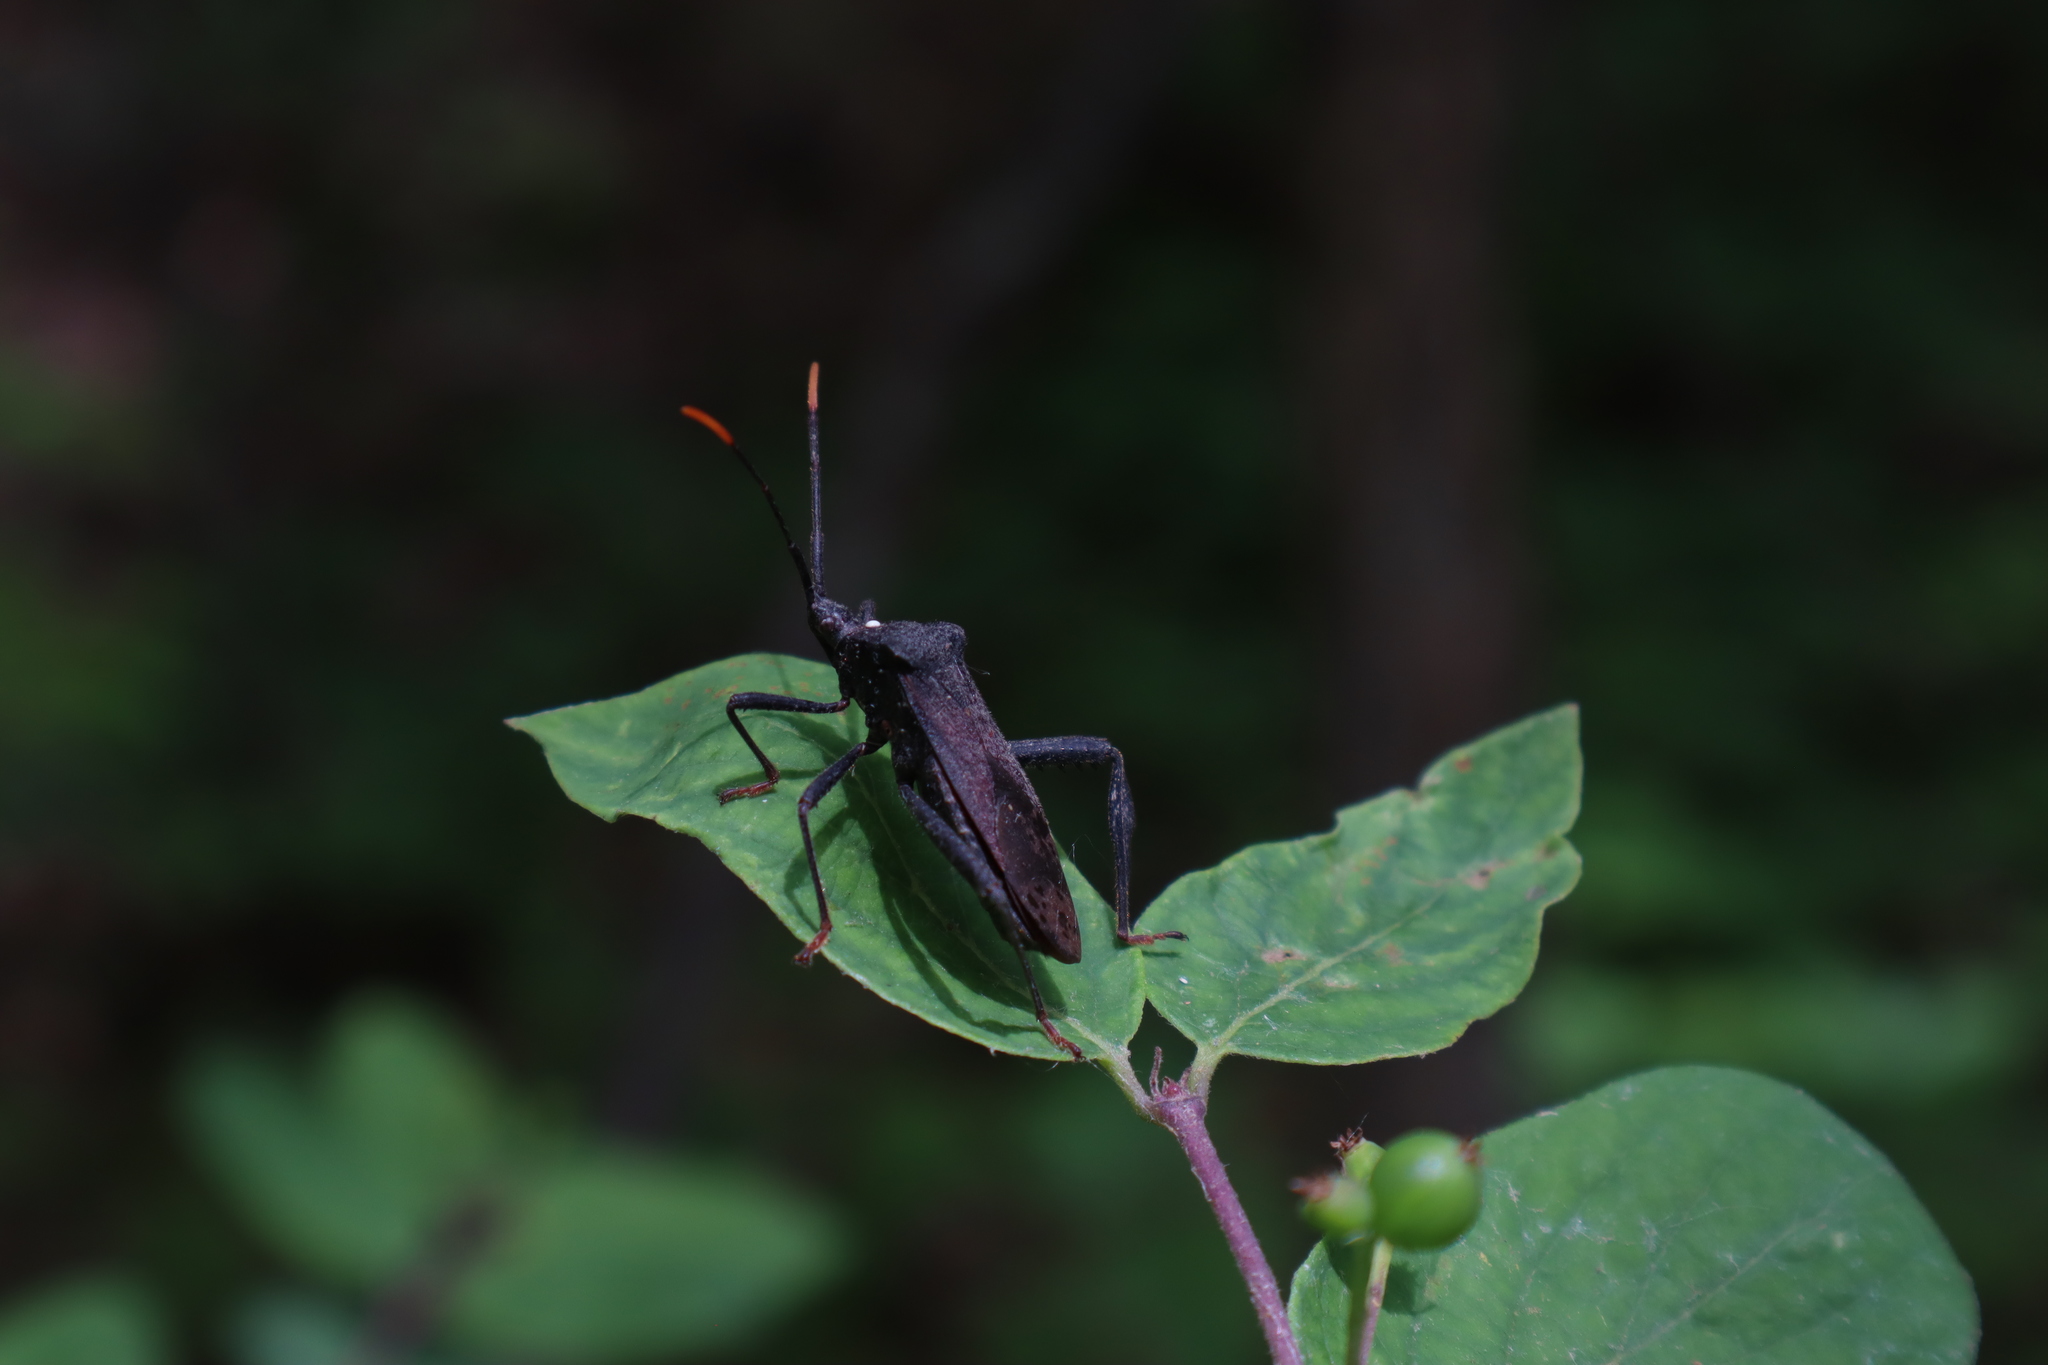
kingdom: Animalia
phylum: Arthropoda
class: Insecta
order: Hemiptera
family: Coreidae
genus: Acanthocephala
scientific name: Acanthocephala terminalis
